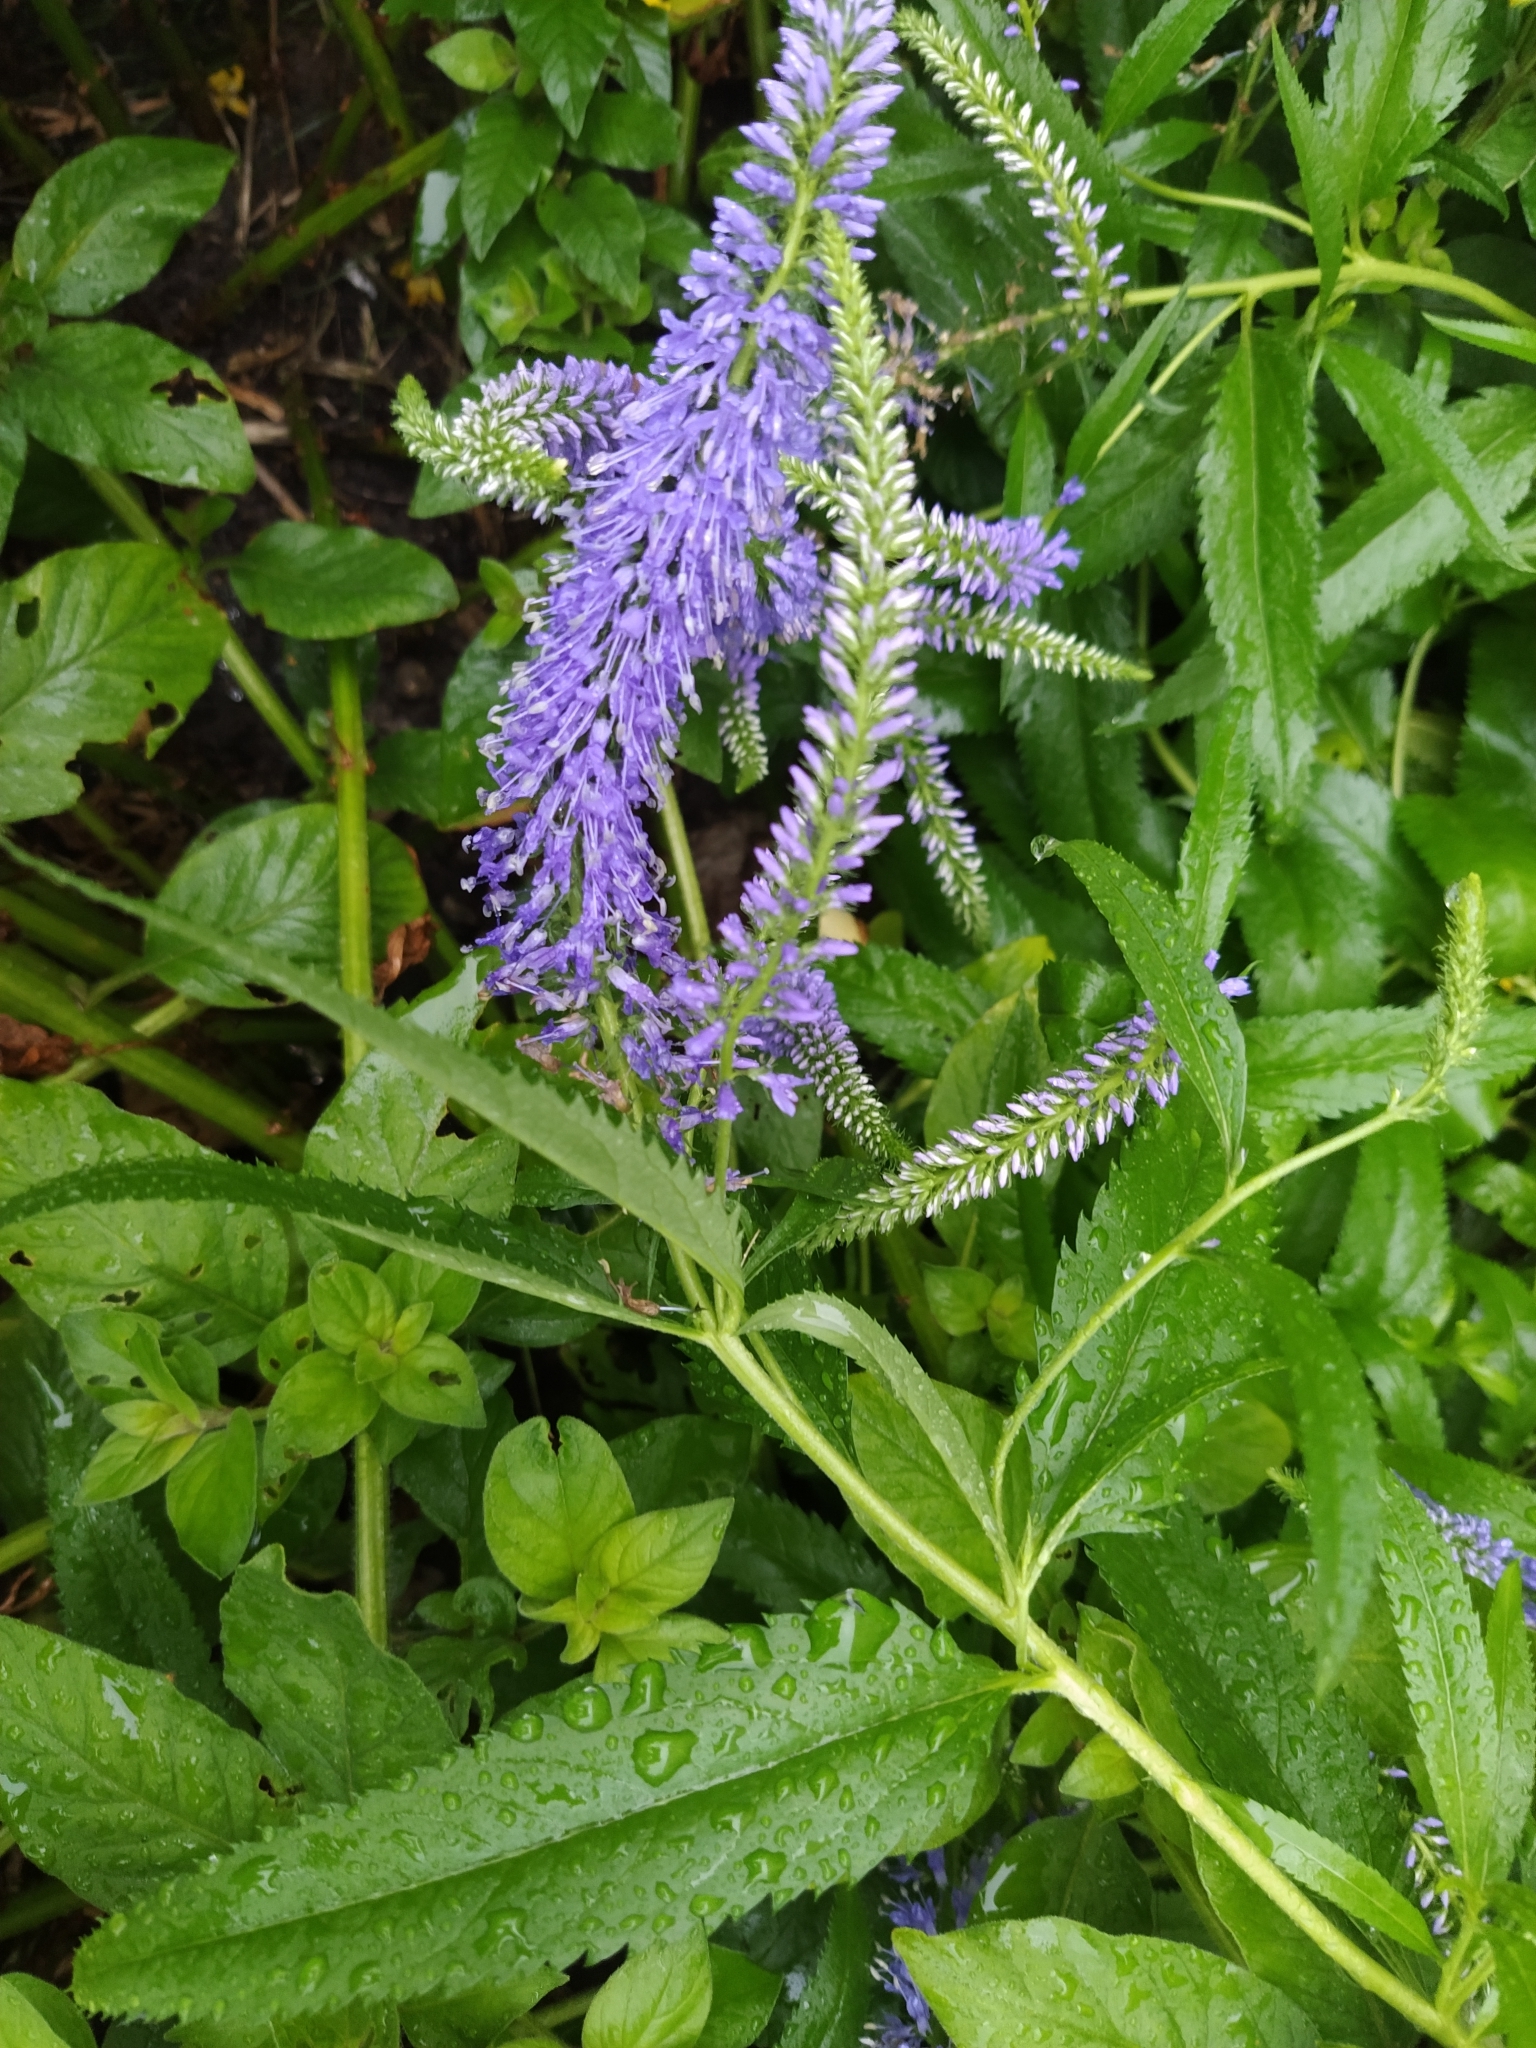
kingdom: Plantae
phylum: Tracheophyta
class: Magnoliopsida
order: Lamiales
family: Plantaginaceae
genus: Veronica
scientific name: Veronica longifolia
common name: Garden speedwell
